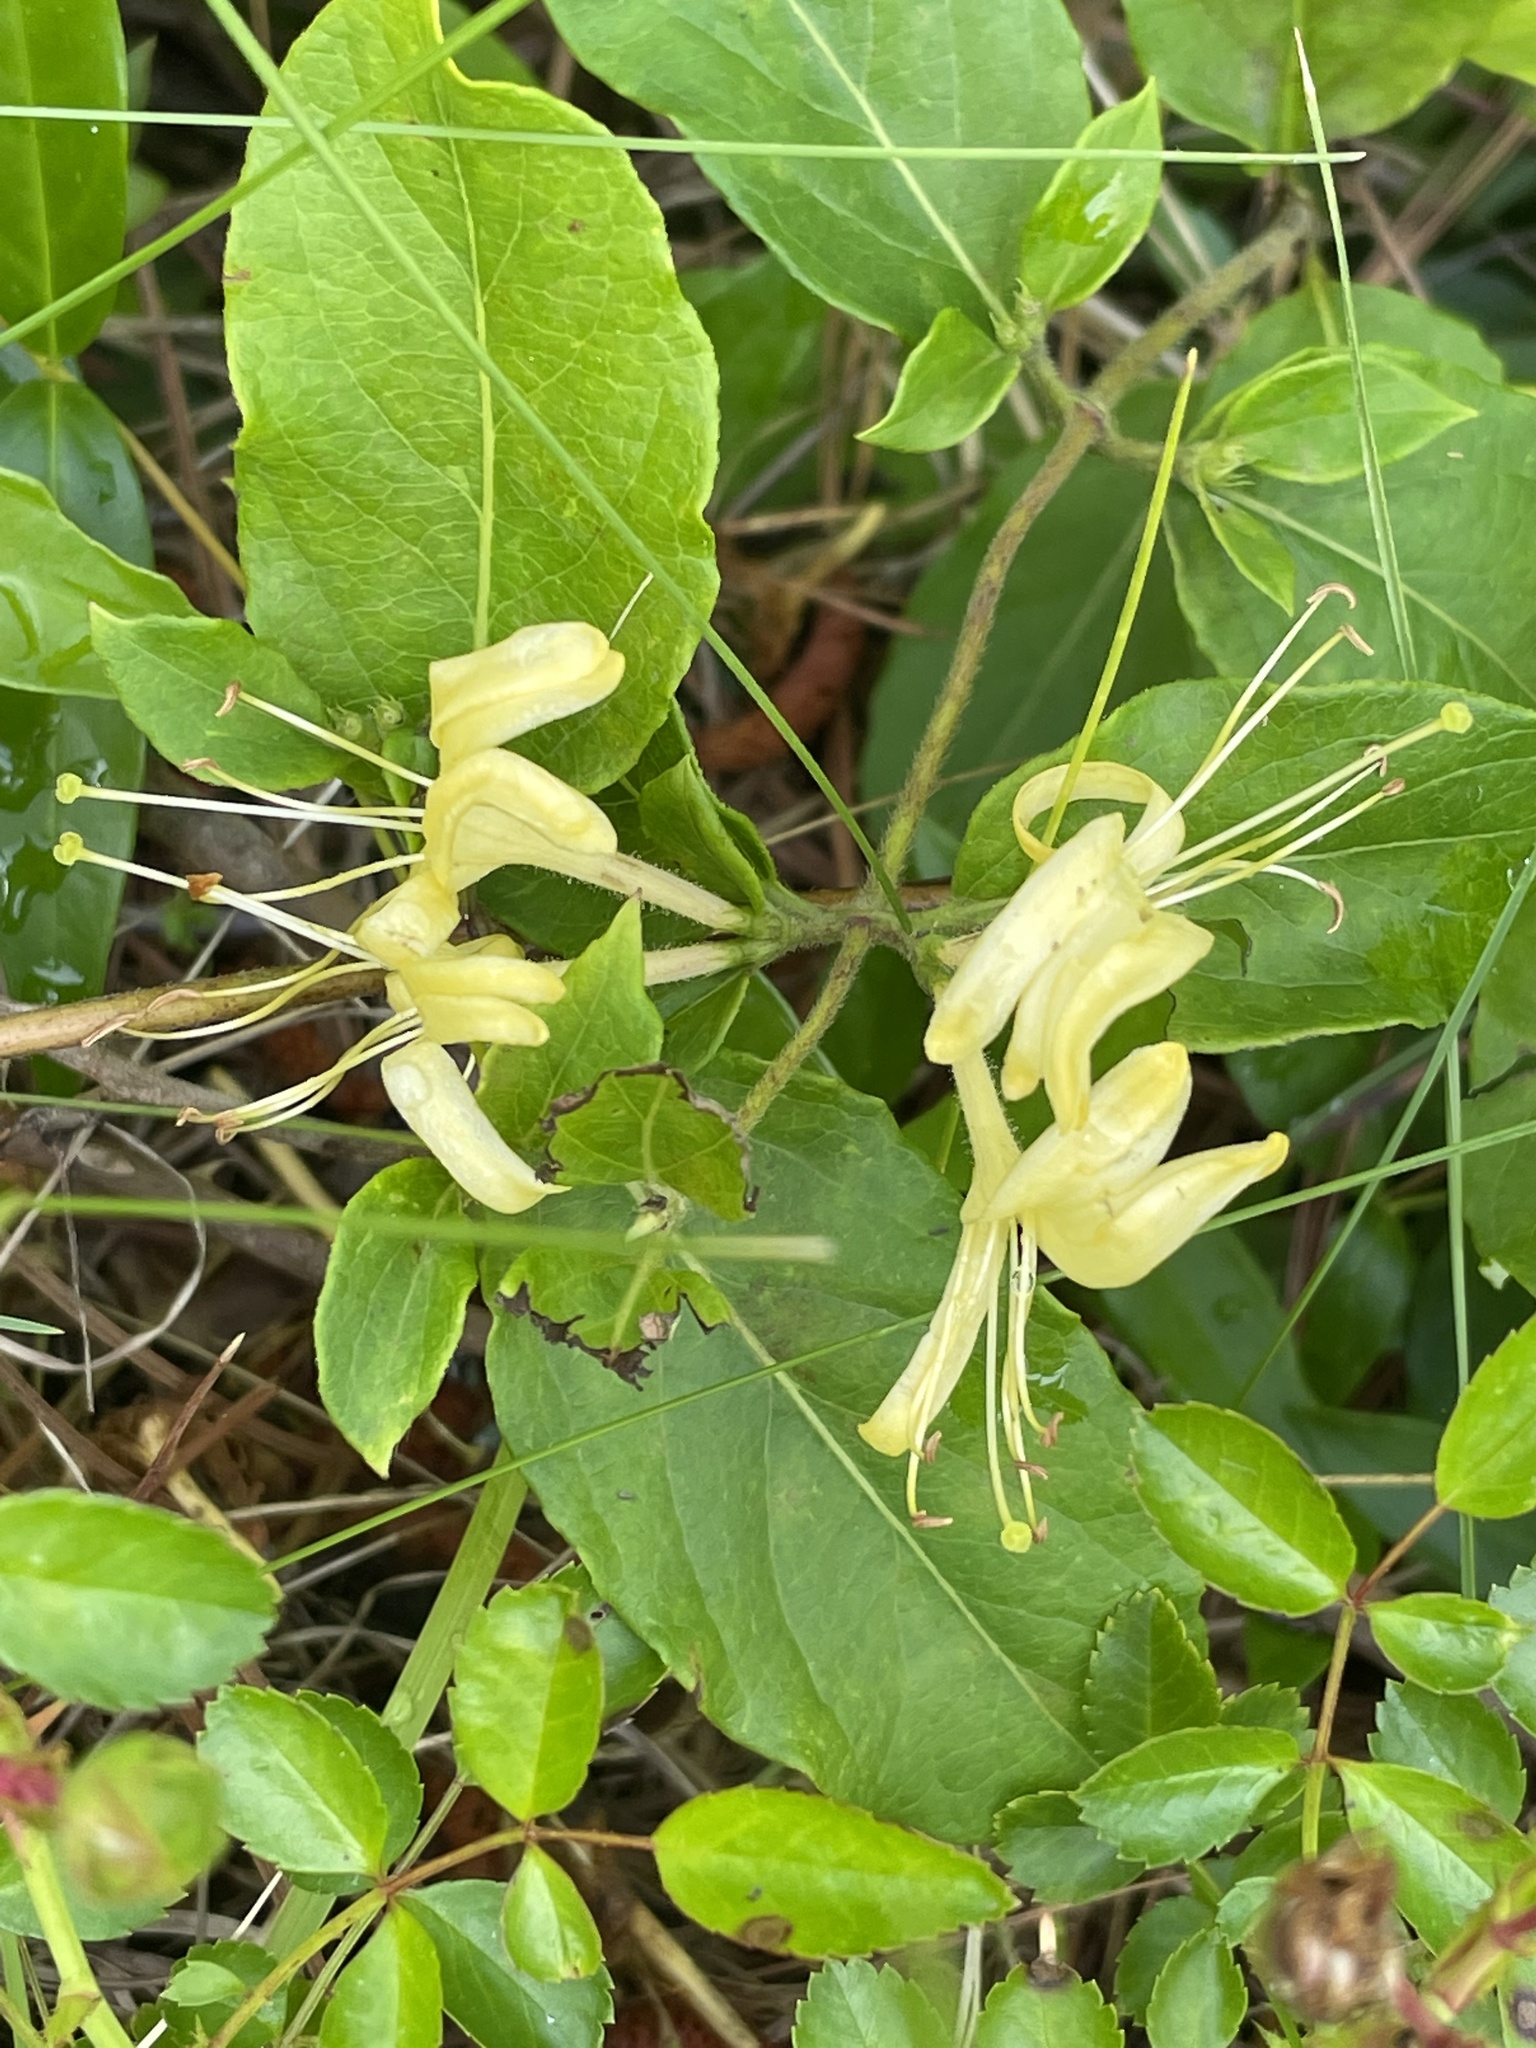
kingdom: Plantae
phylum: Tracheophyta
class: Magnoliopsida
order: Dipsacales
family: Caprifoliaceae
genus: Lonicera
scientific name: Lonicera japonica
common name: Japanese honeysuckle
